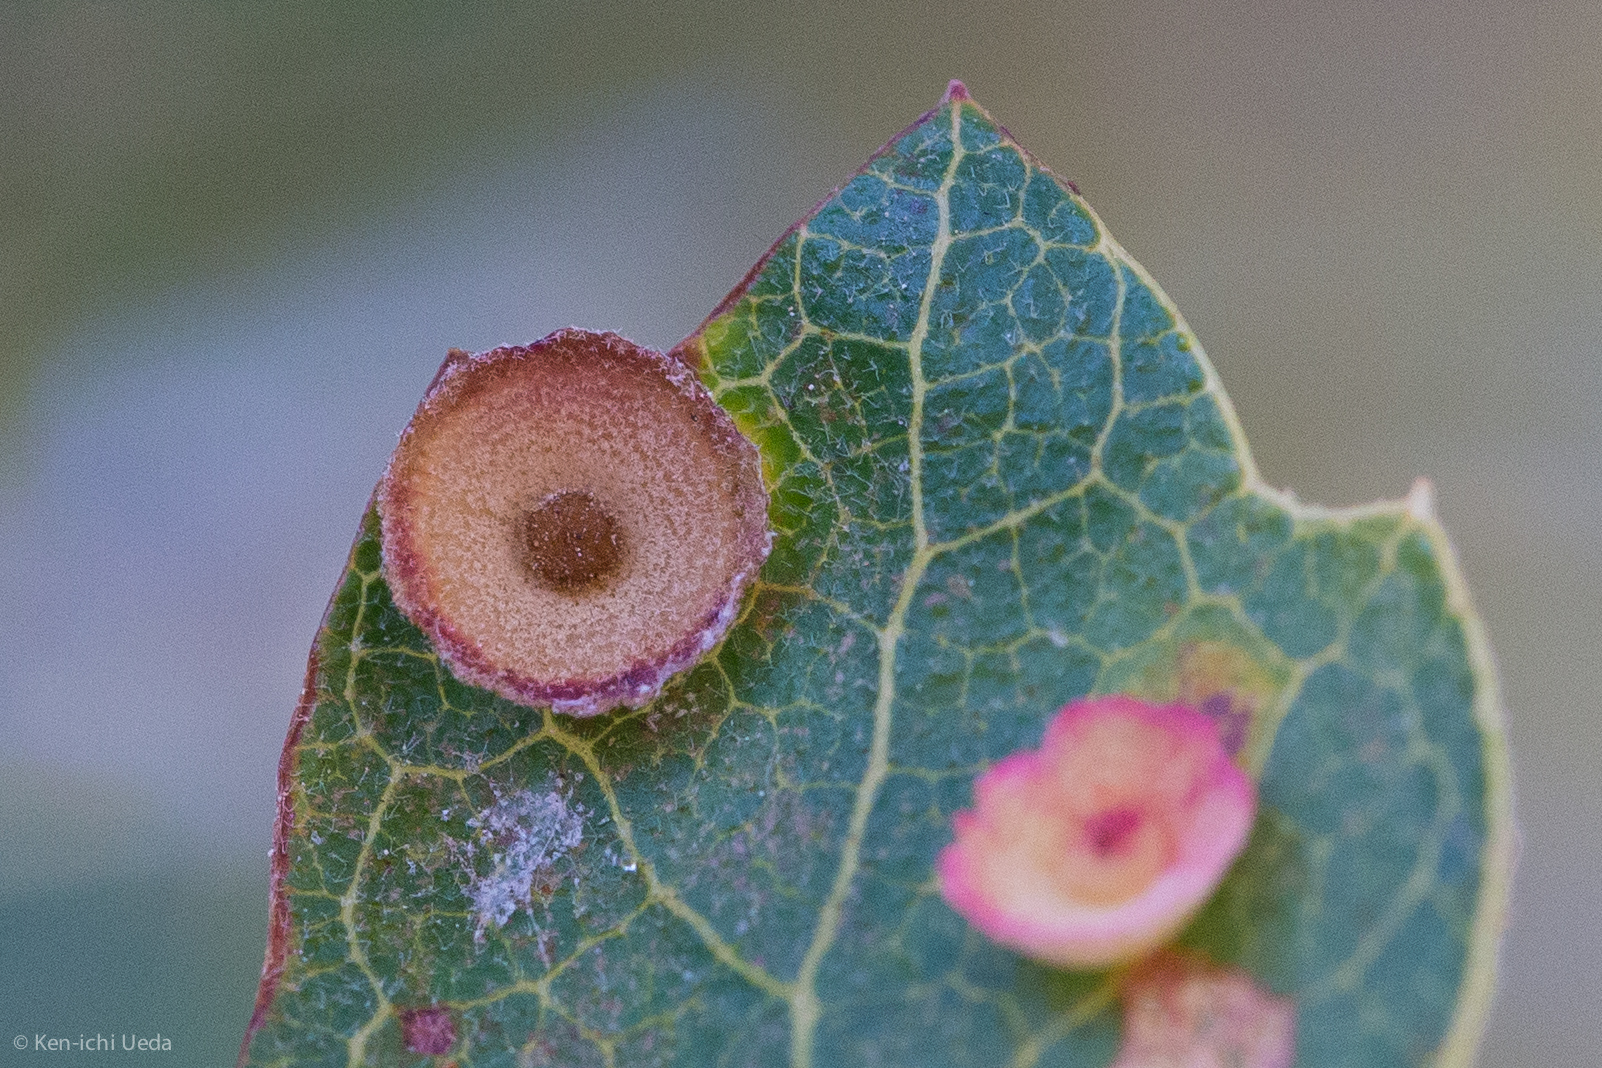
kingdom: Animalia
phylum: Arthropoda
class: Insecta
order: Hymenoptera
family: Cynipidae
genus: Andricus
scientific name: Andricus
